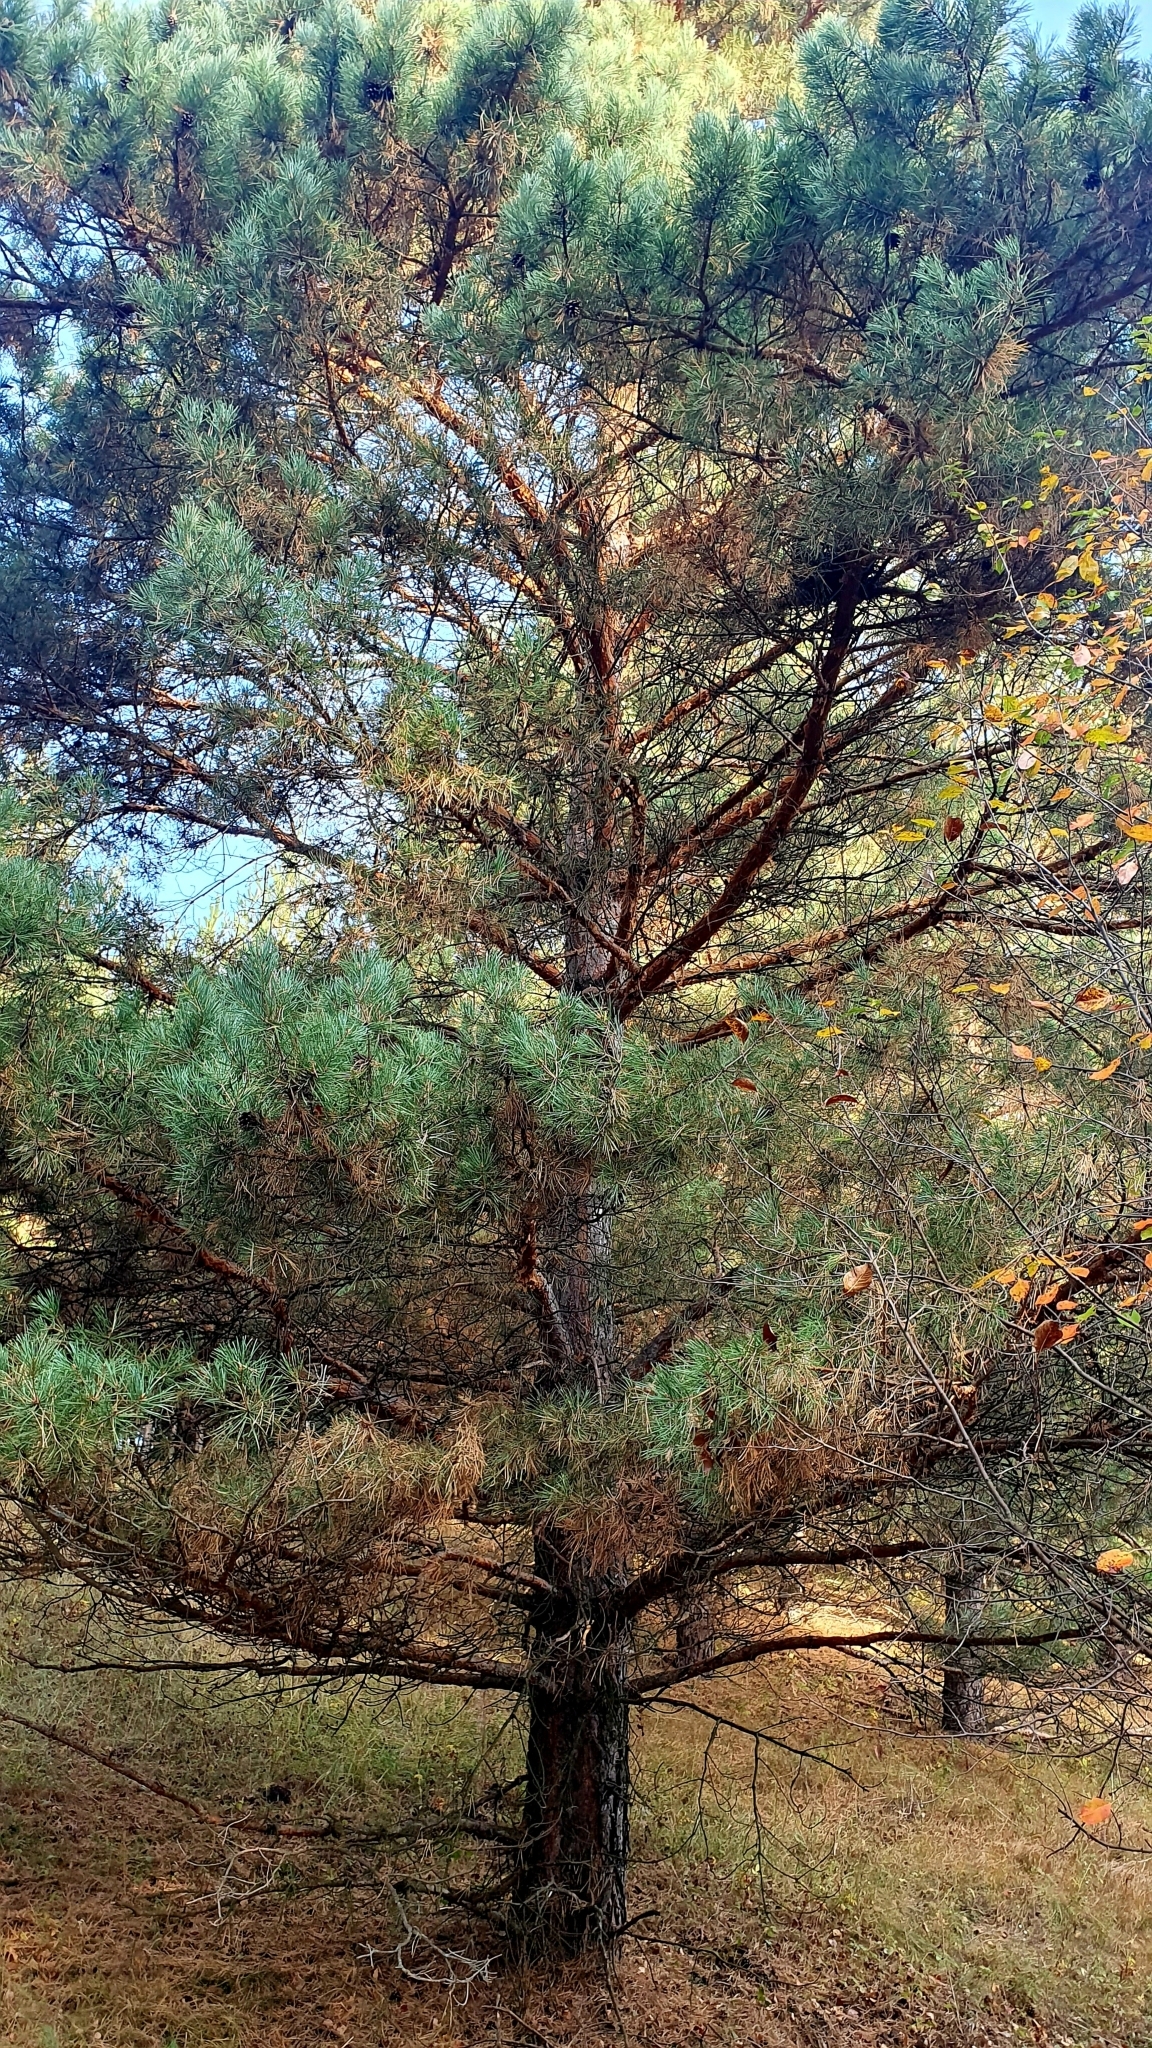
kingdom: Plantae
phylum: Tracheophyta
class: Pinopsida
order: Pinales
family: Pinaceae
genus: Pinus
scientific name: Pinus sylvestris
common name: Scots pine
